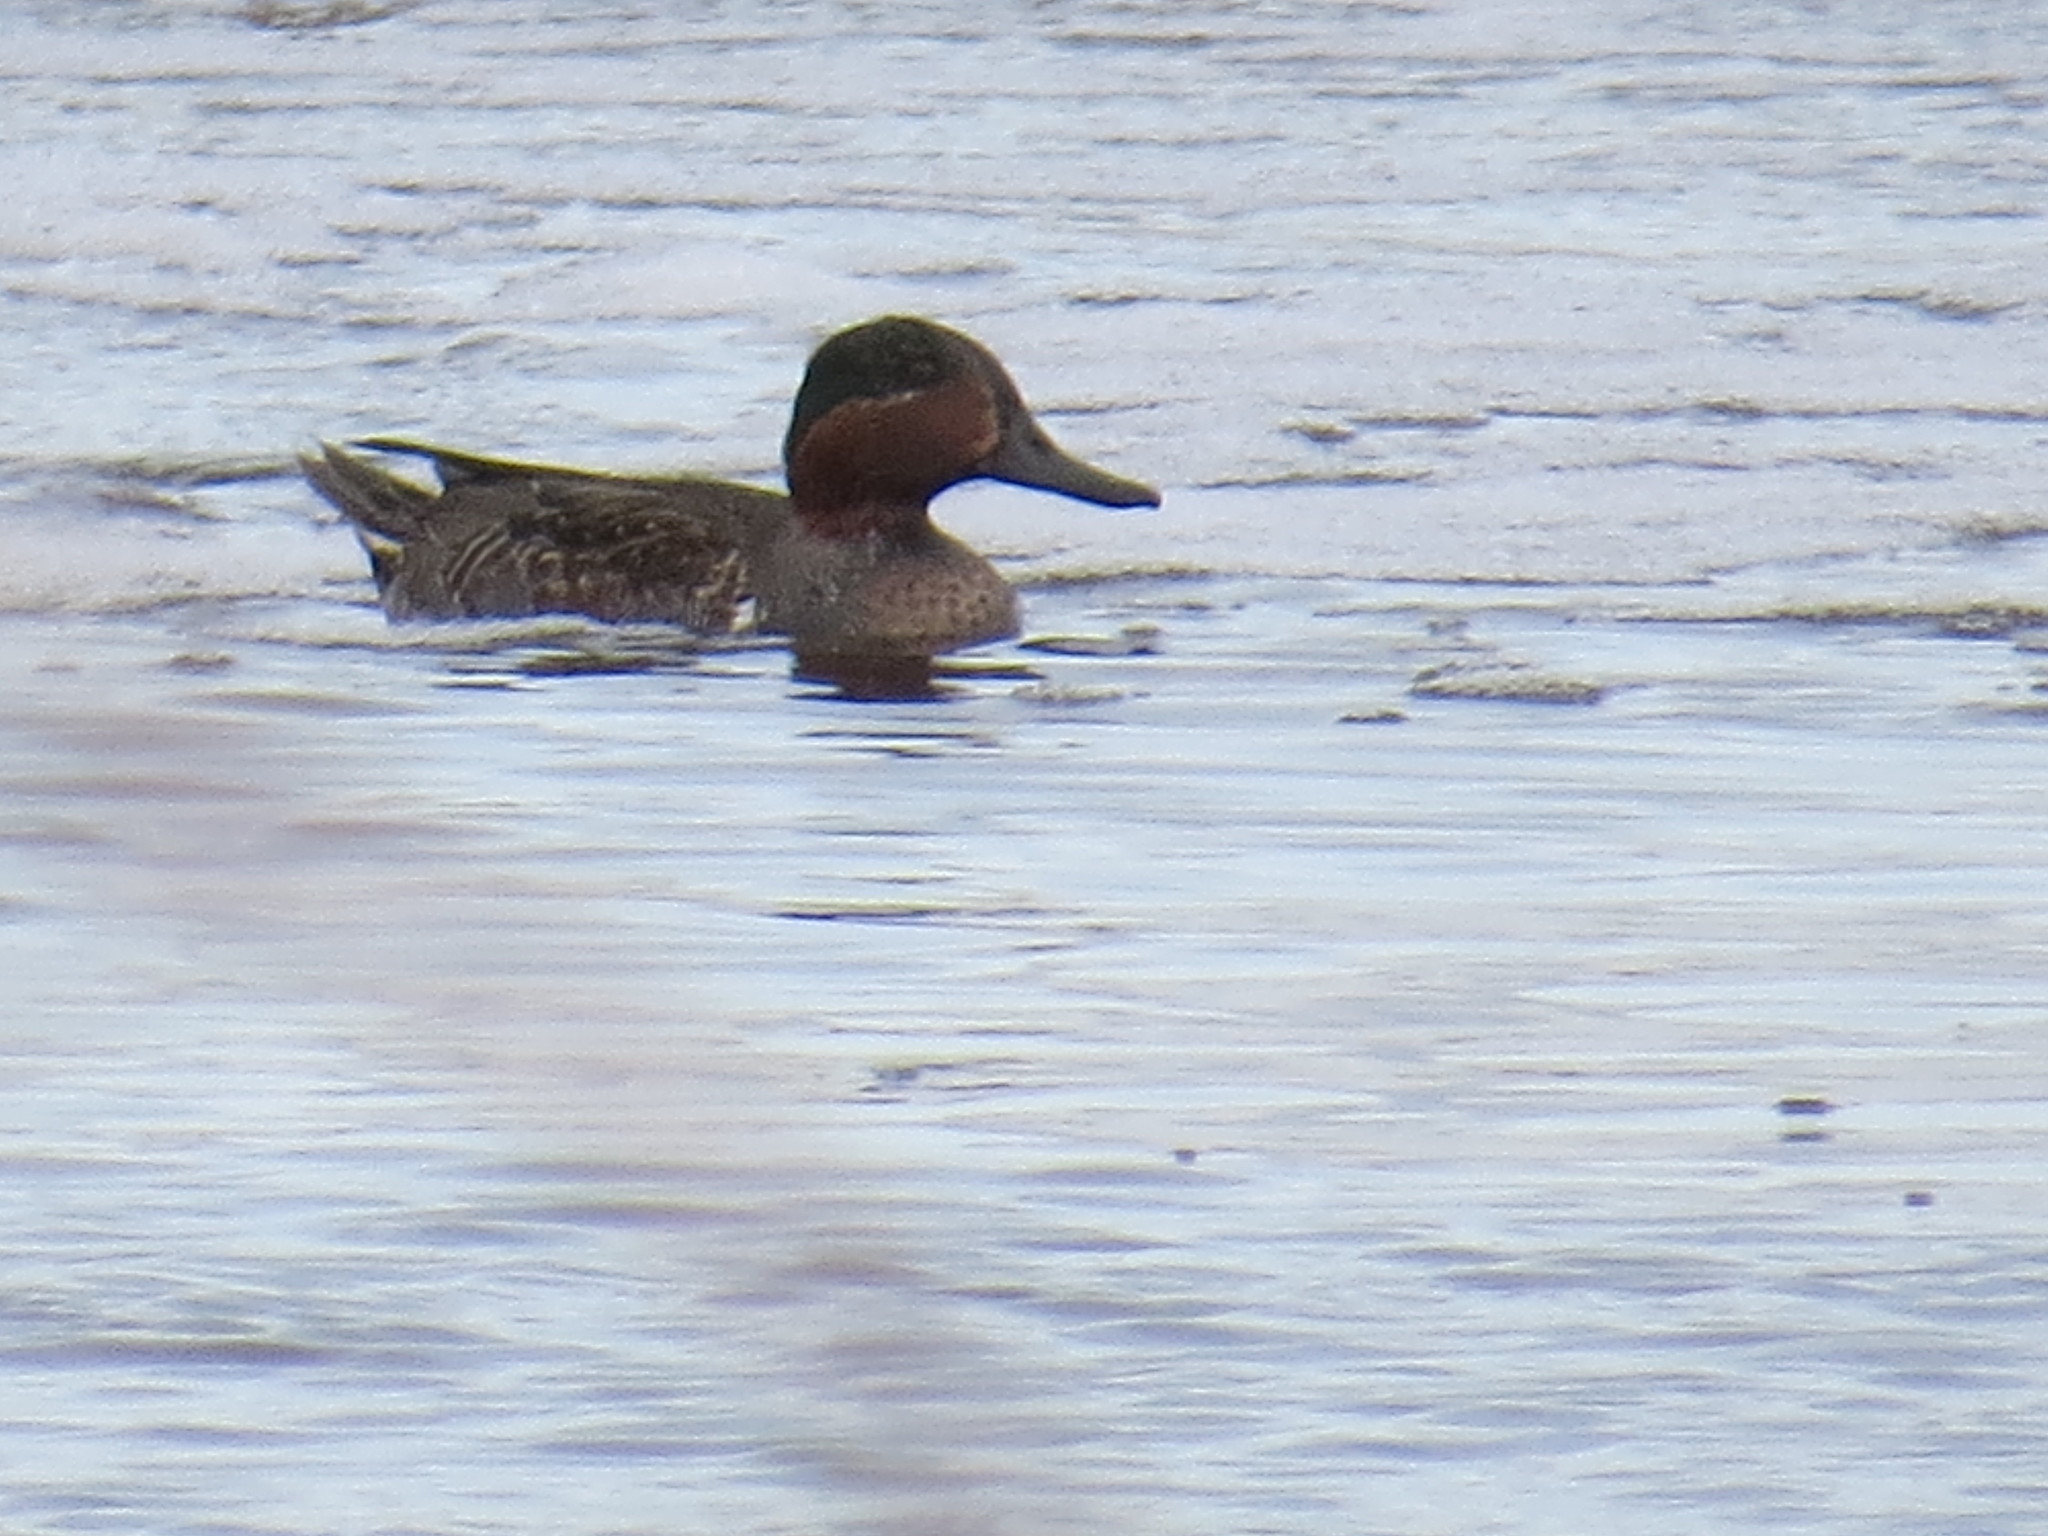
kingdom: Animalia
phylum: Chordata
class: Aves
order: Anseriformes
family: Anatidae
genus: Anas
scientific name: Anas crecca
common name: Eurasian teal
